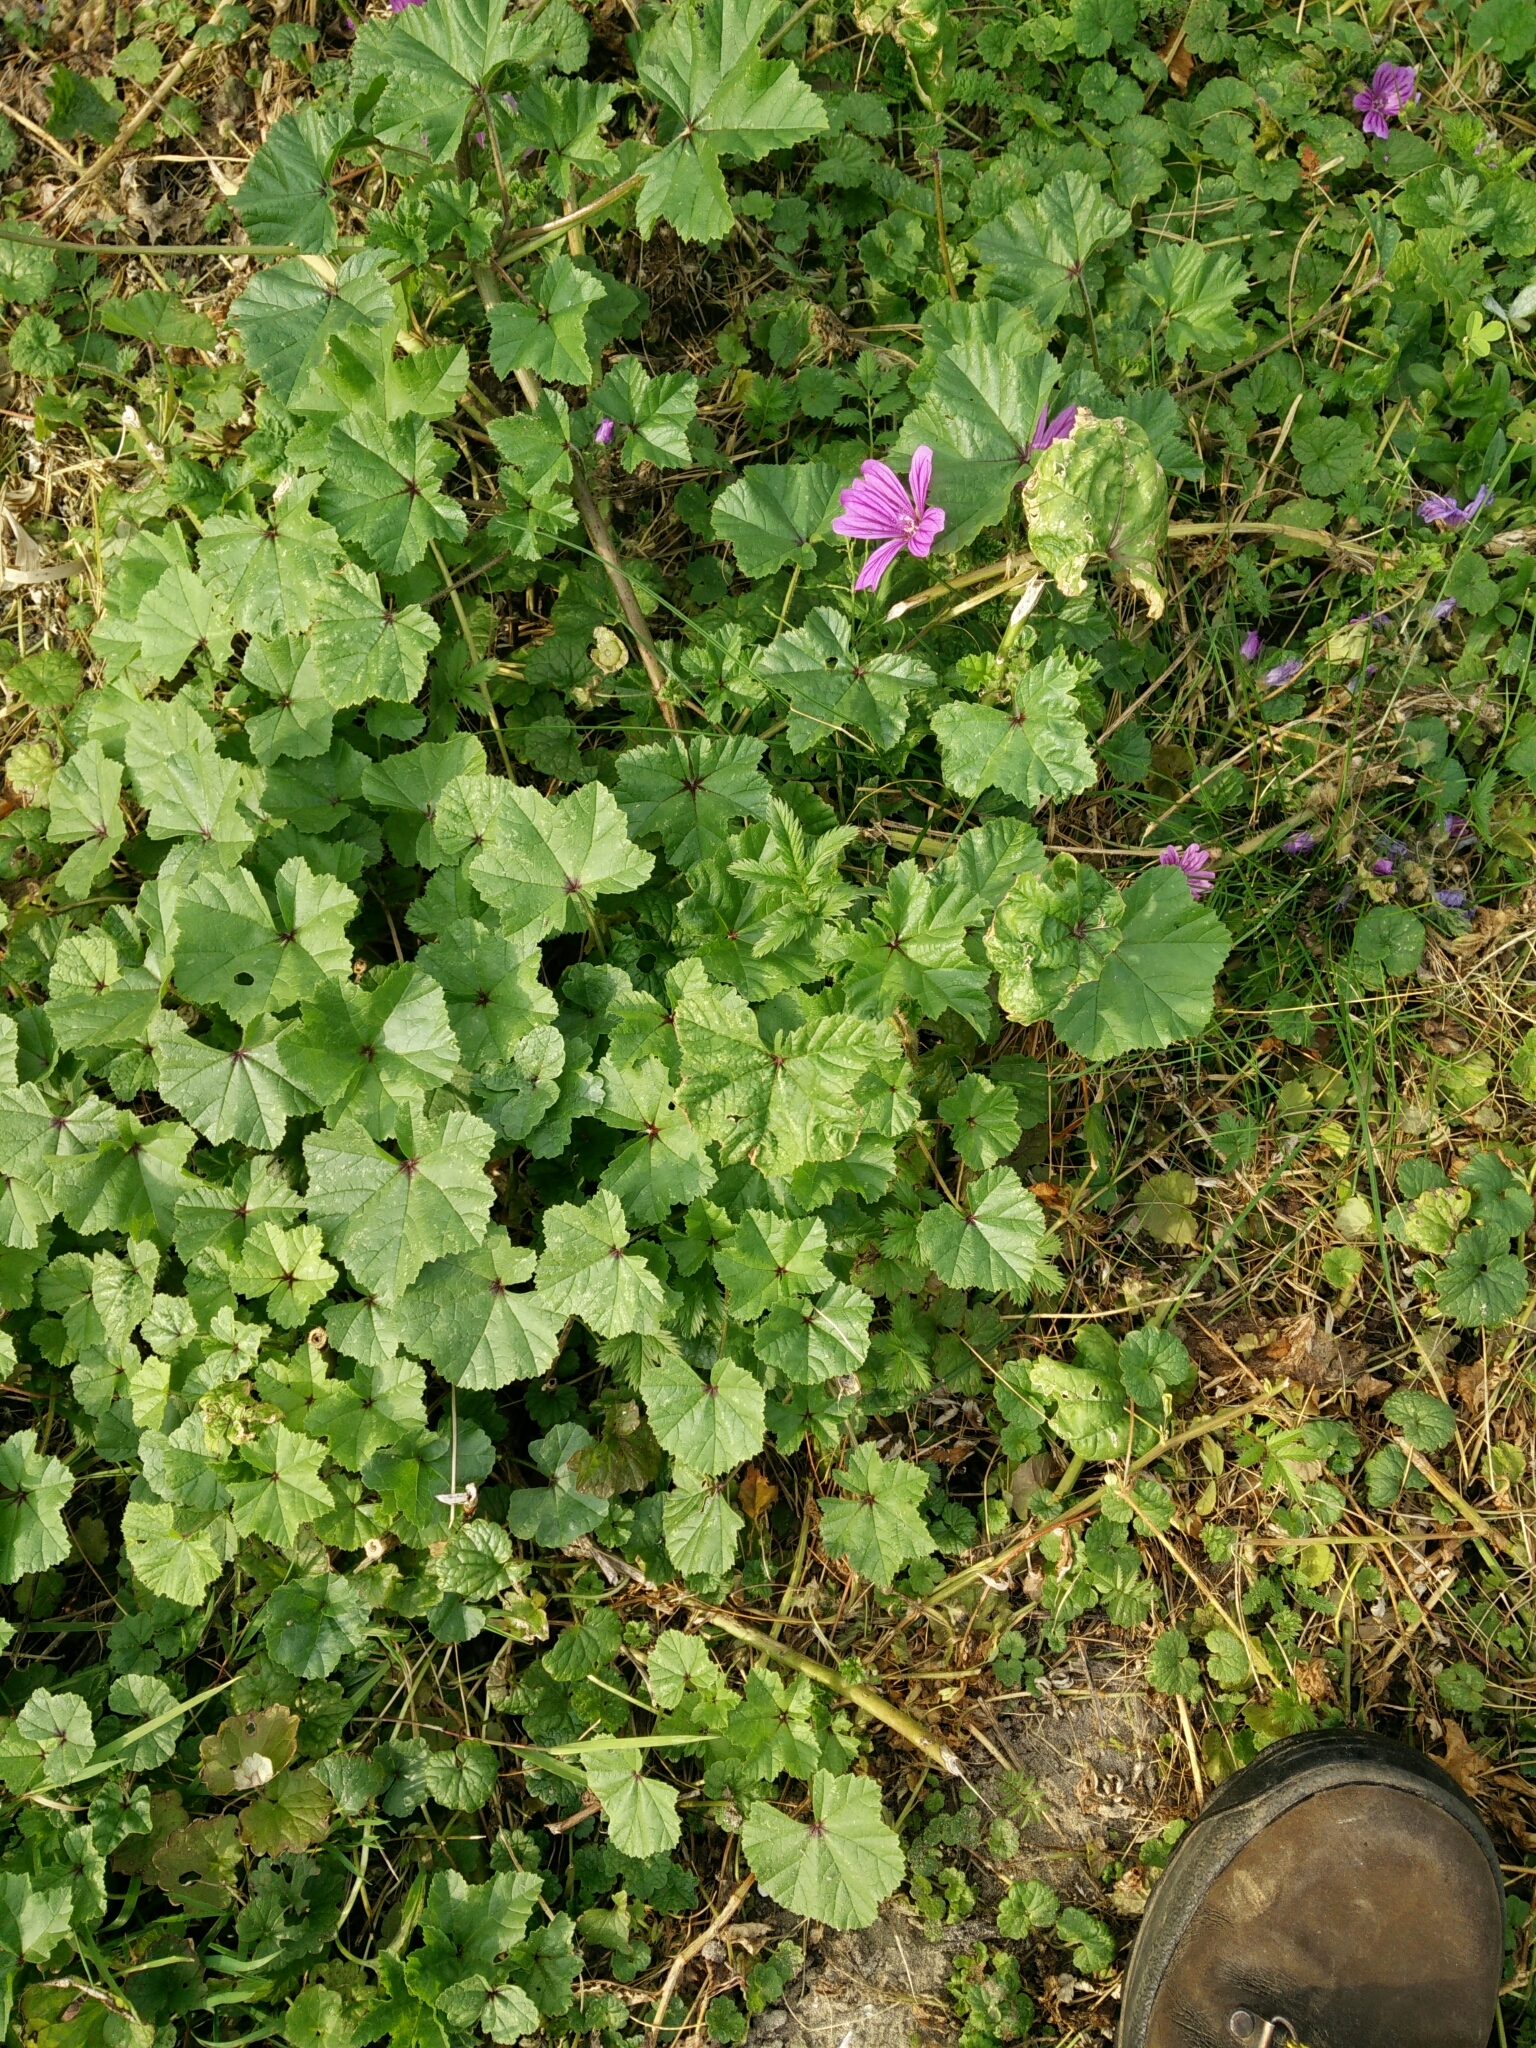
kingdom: Plantae
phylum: Tracheophyta
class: Magnoliopsida
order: Malvales
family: Malvaceae
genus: Malva
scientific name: Malva sylvestris
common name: Common mallow
